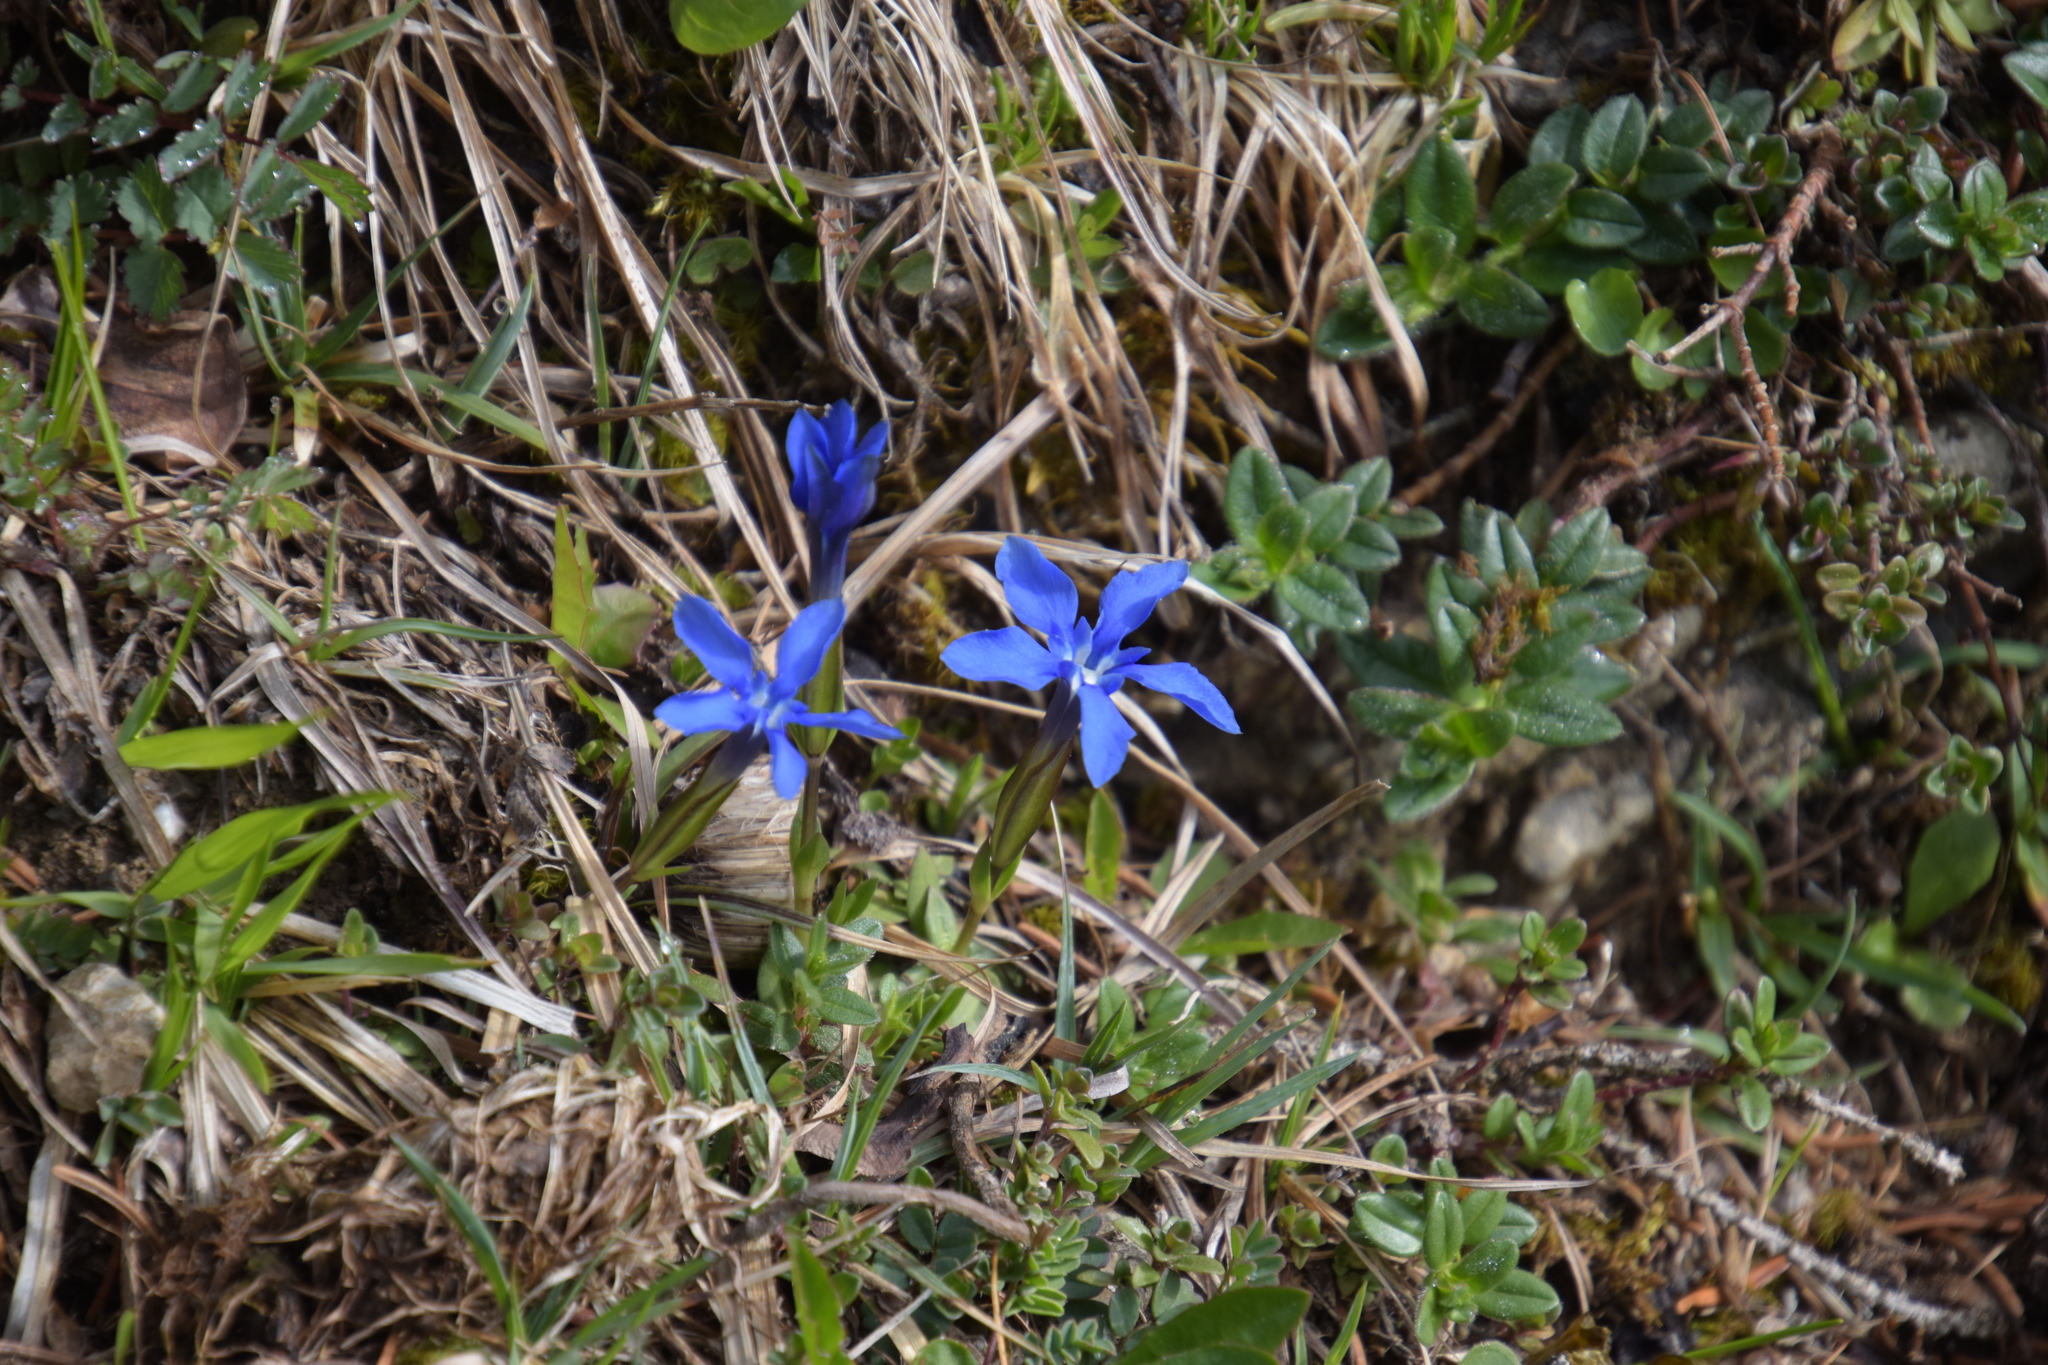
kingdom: Plantae
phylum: Tracheophyta
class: Magnoliopsida
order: Gentianales
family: Gentianaceae
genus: Gentiana
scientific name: Gentiana verna
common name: Spring gentian
